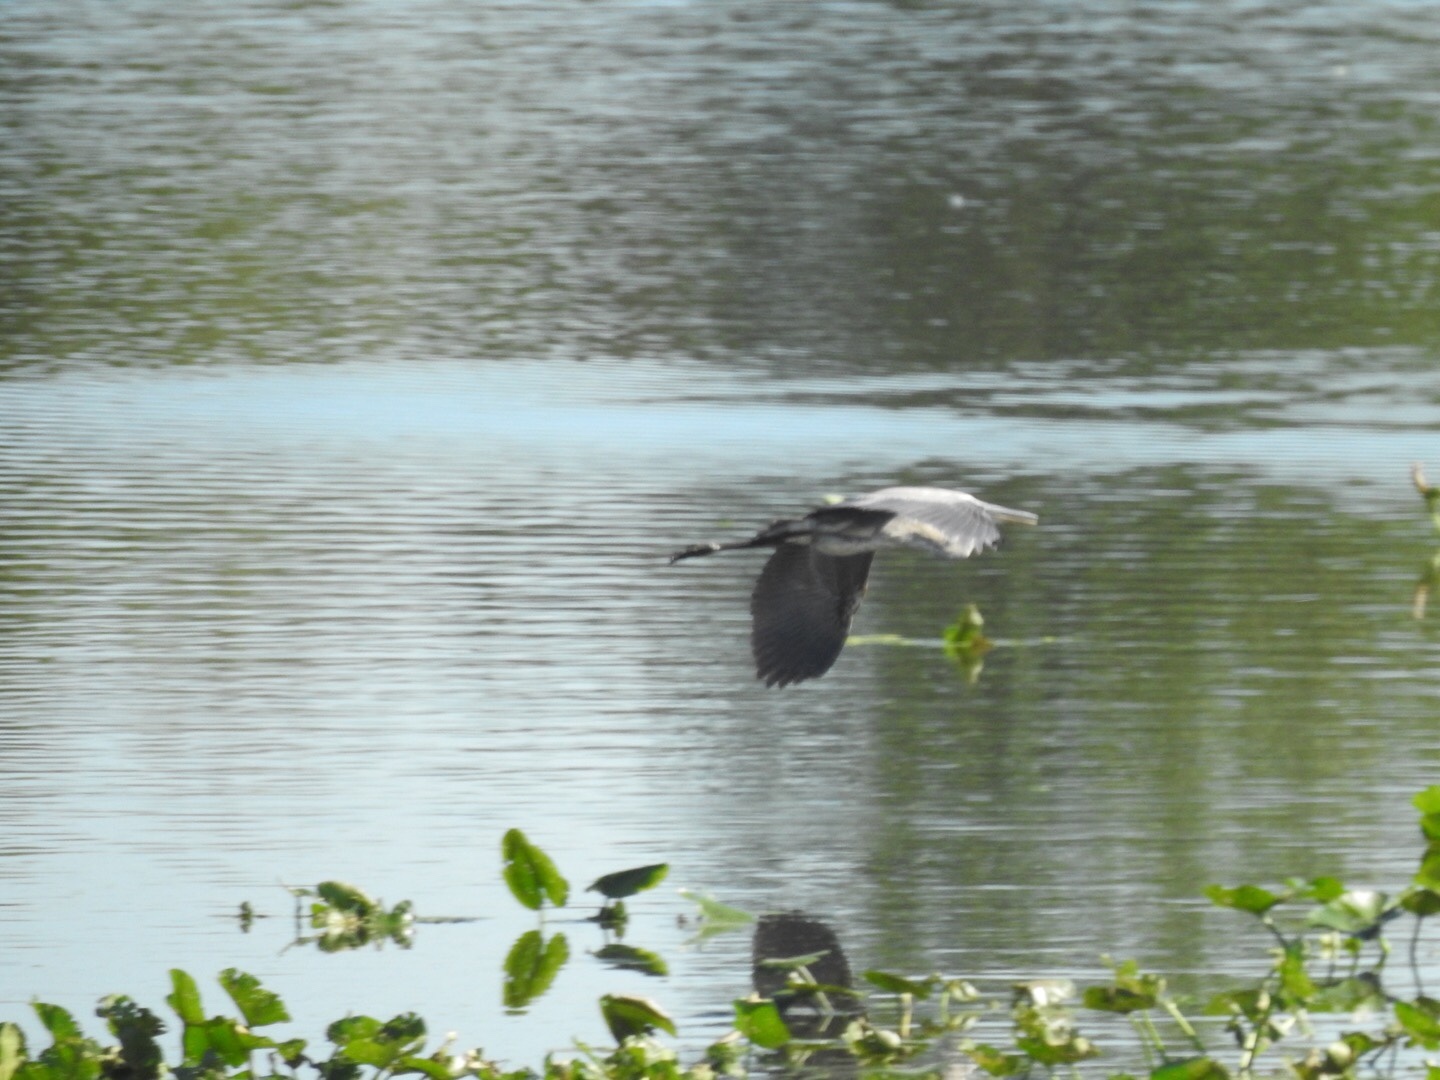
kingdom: Animalia
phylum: Chordata
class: Aves
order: Pelecaniformes
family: Ardeidae
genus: Ardea
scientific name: Ardea herodias
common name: Great blue heron
